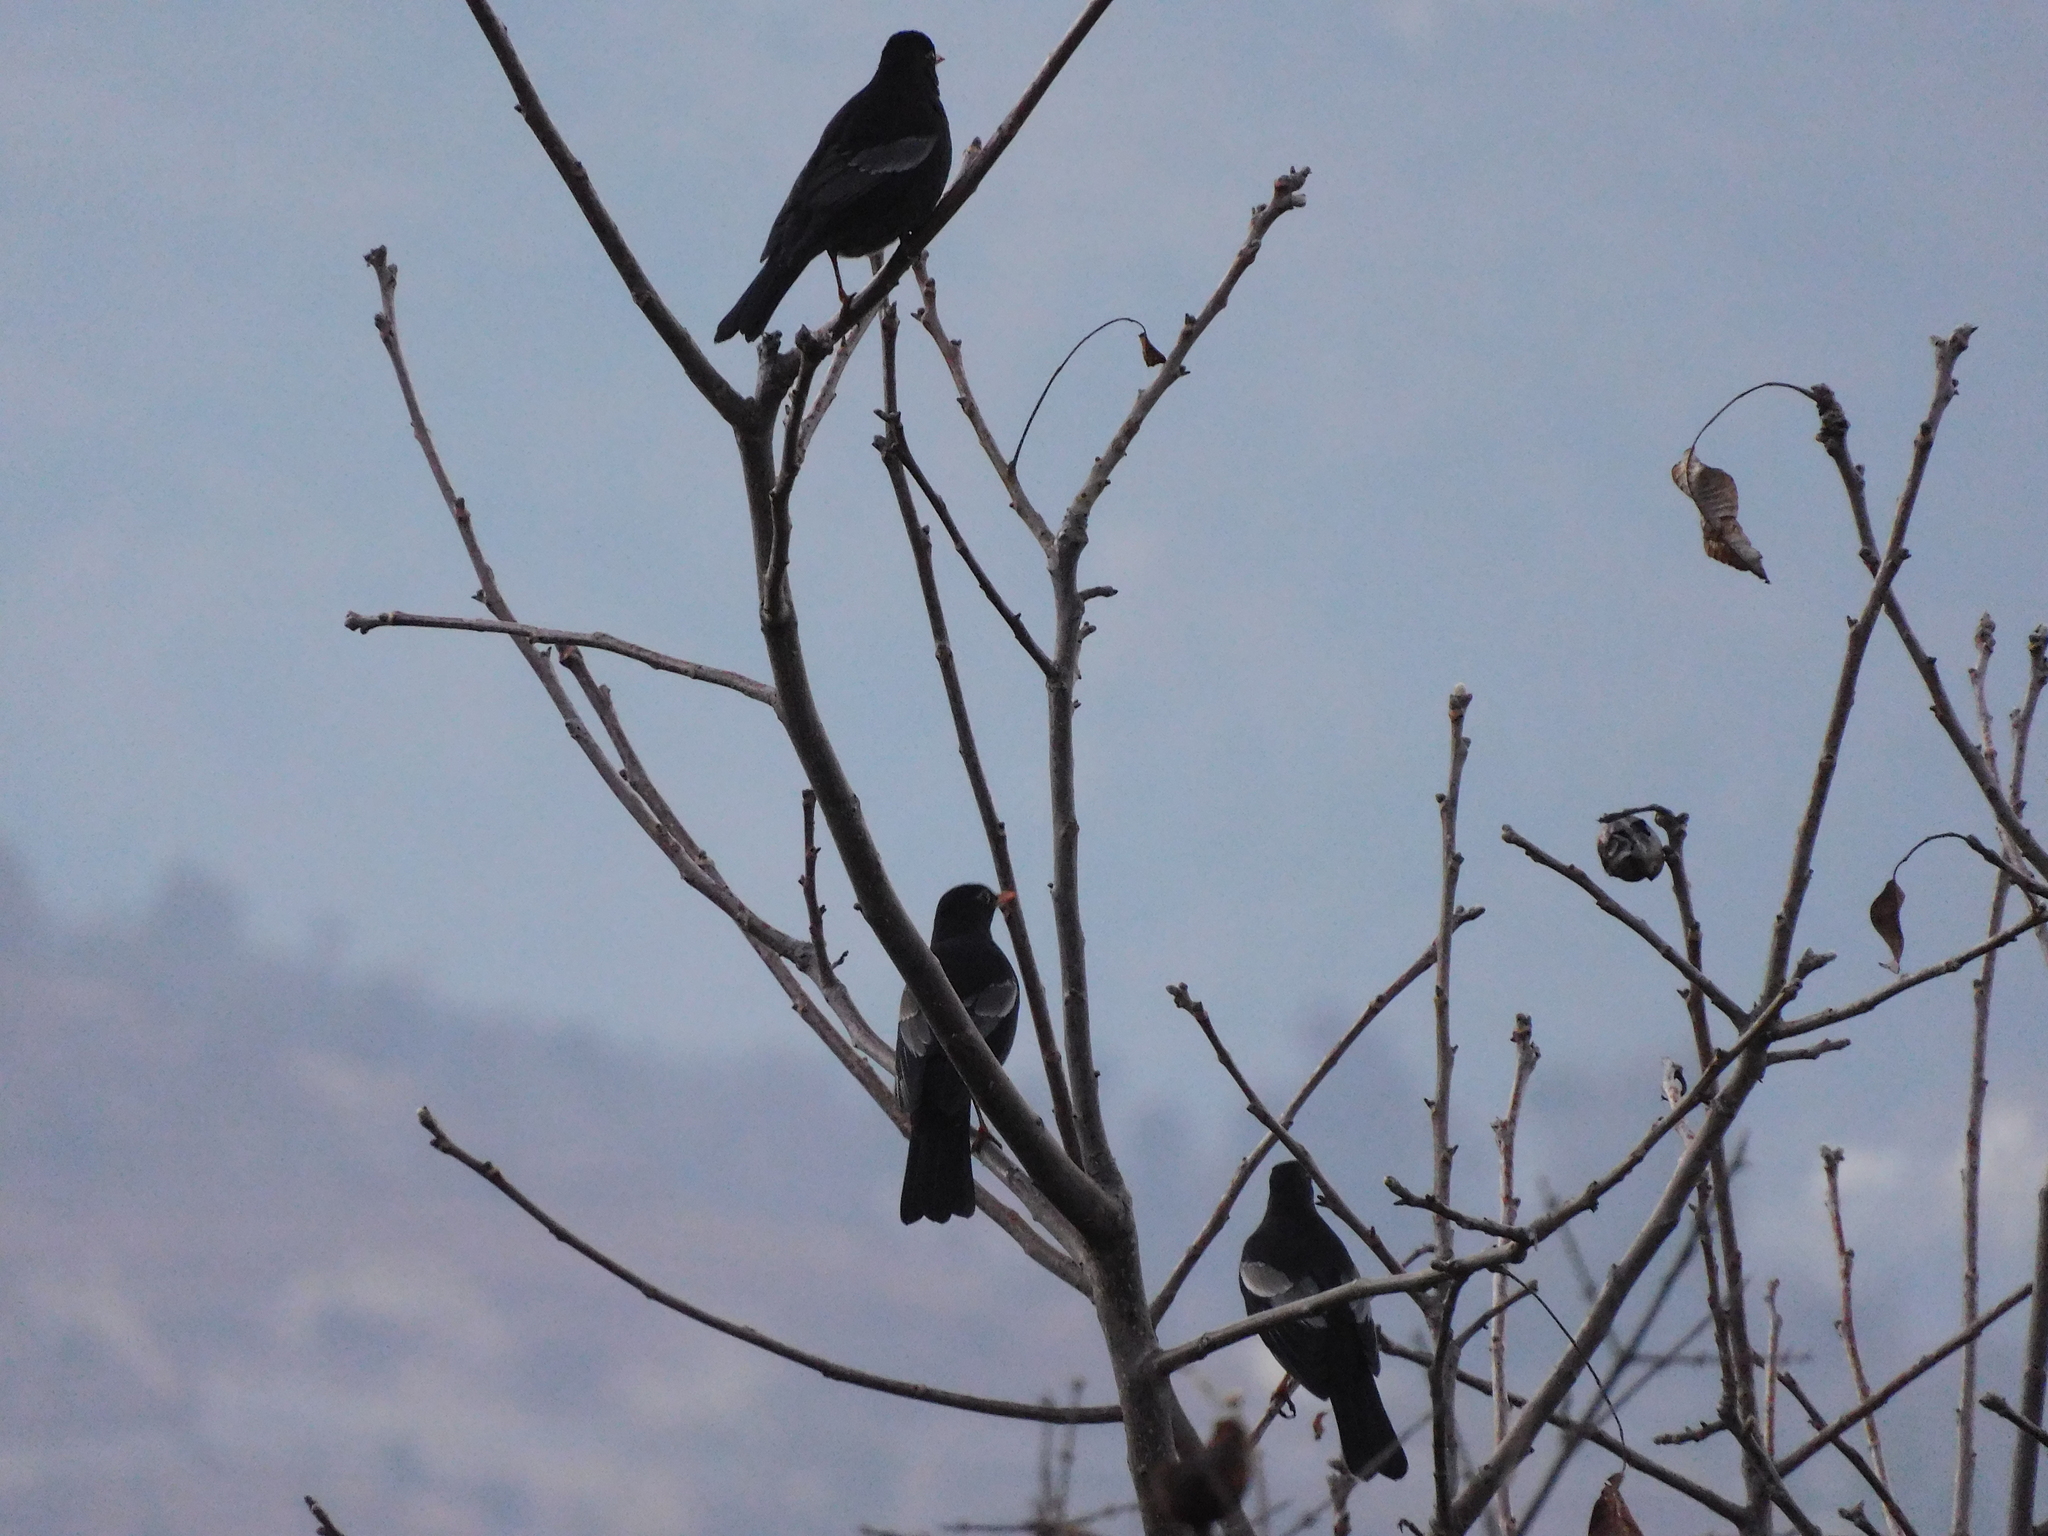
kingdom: Animalia
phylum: Chordata
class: Aves
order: Passeriformes
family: Turdidae
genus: Turdus
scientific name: Turdus boulboul
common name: Grey-winged blackbird
